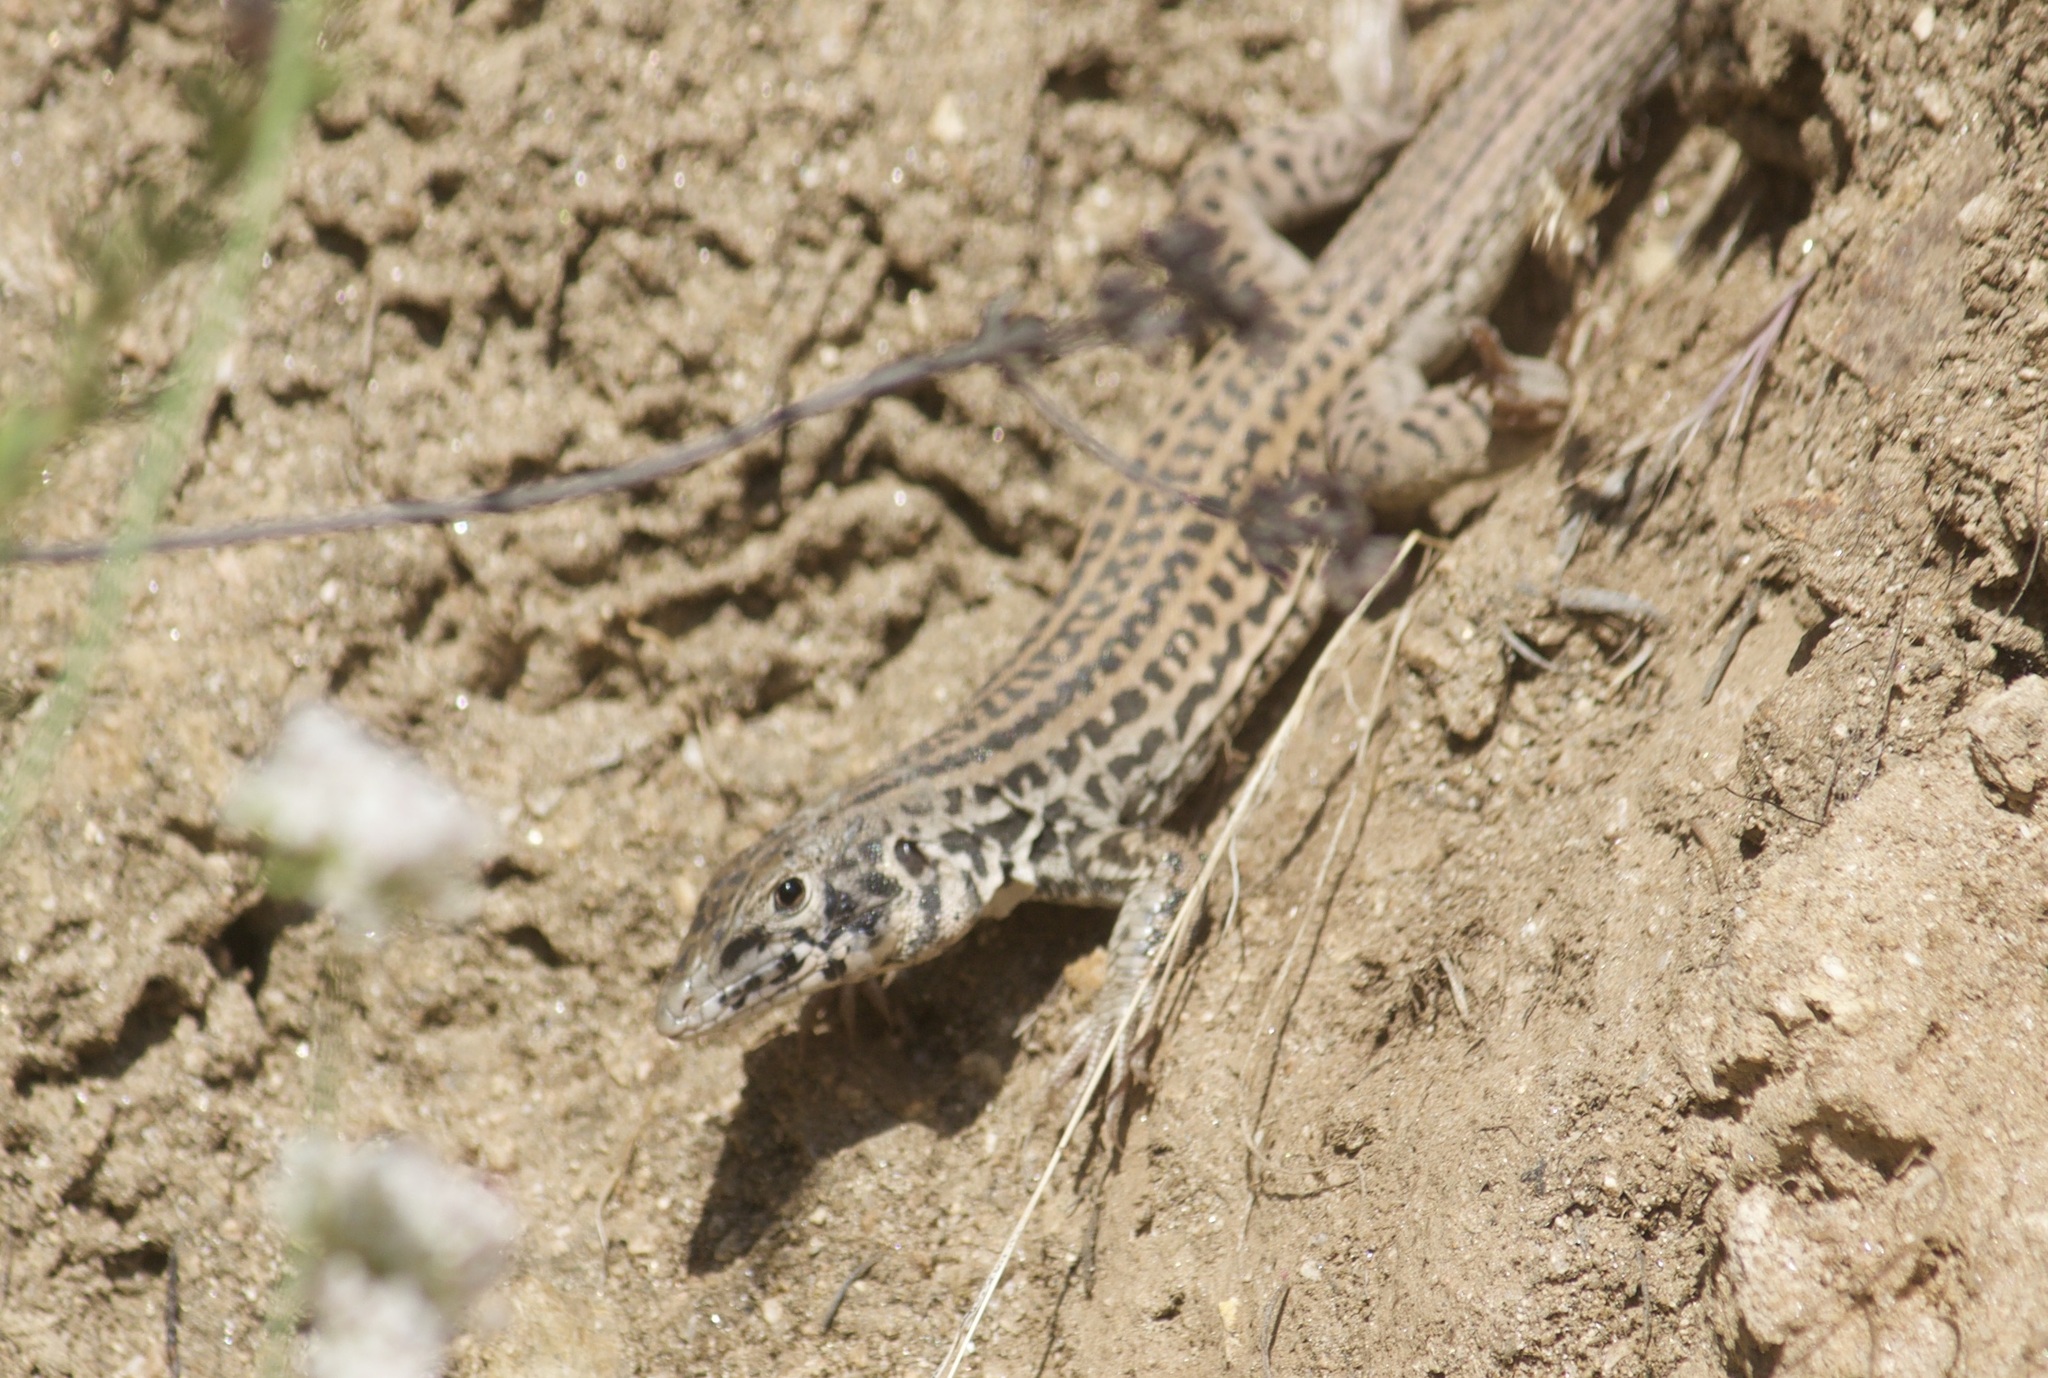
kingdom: Animalia
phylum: Chordata
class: Squamata
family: Teiidae
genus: Aspidoscelis
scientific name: Aspidoscelis tigris
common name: Tiger whiptail
